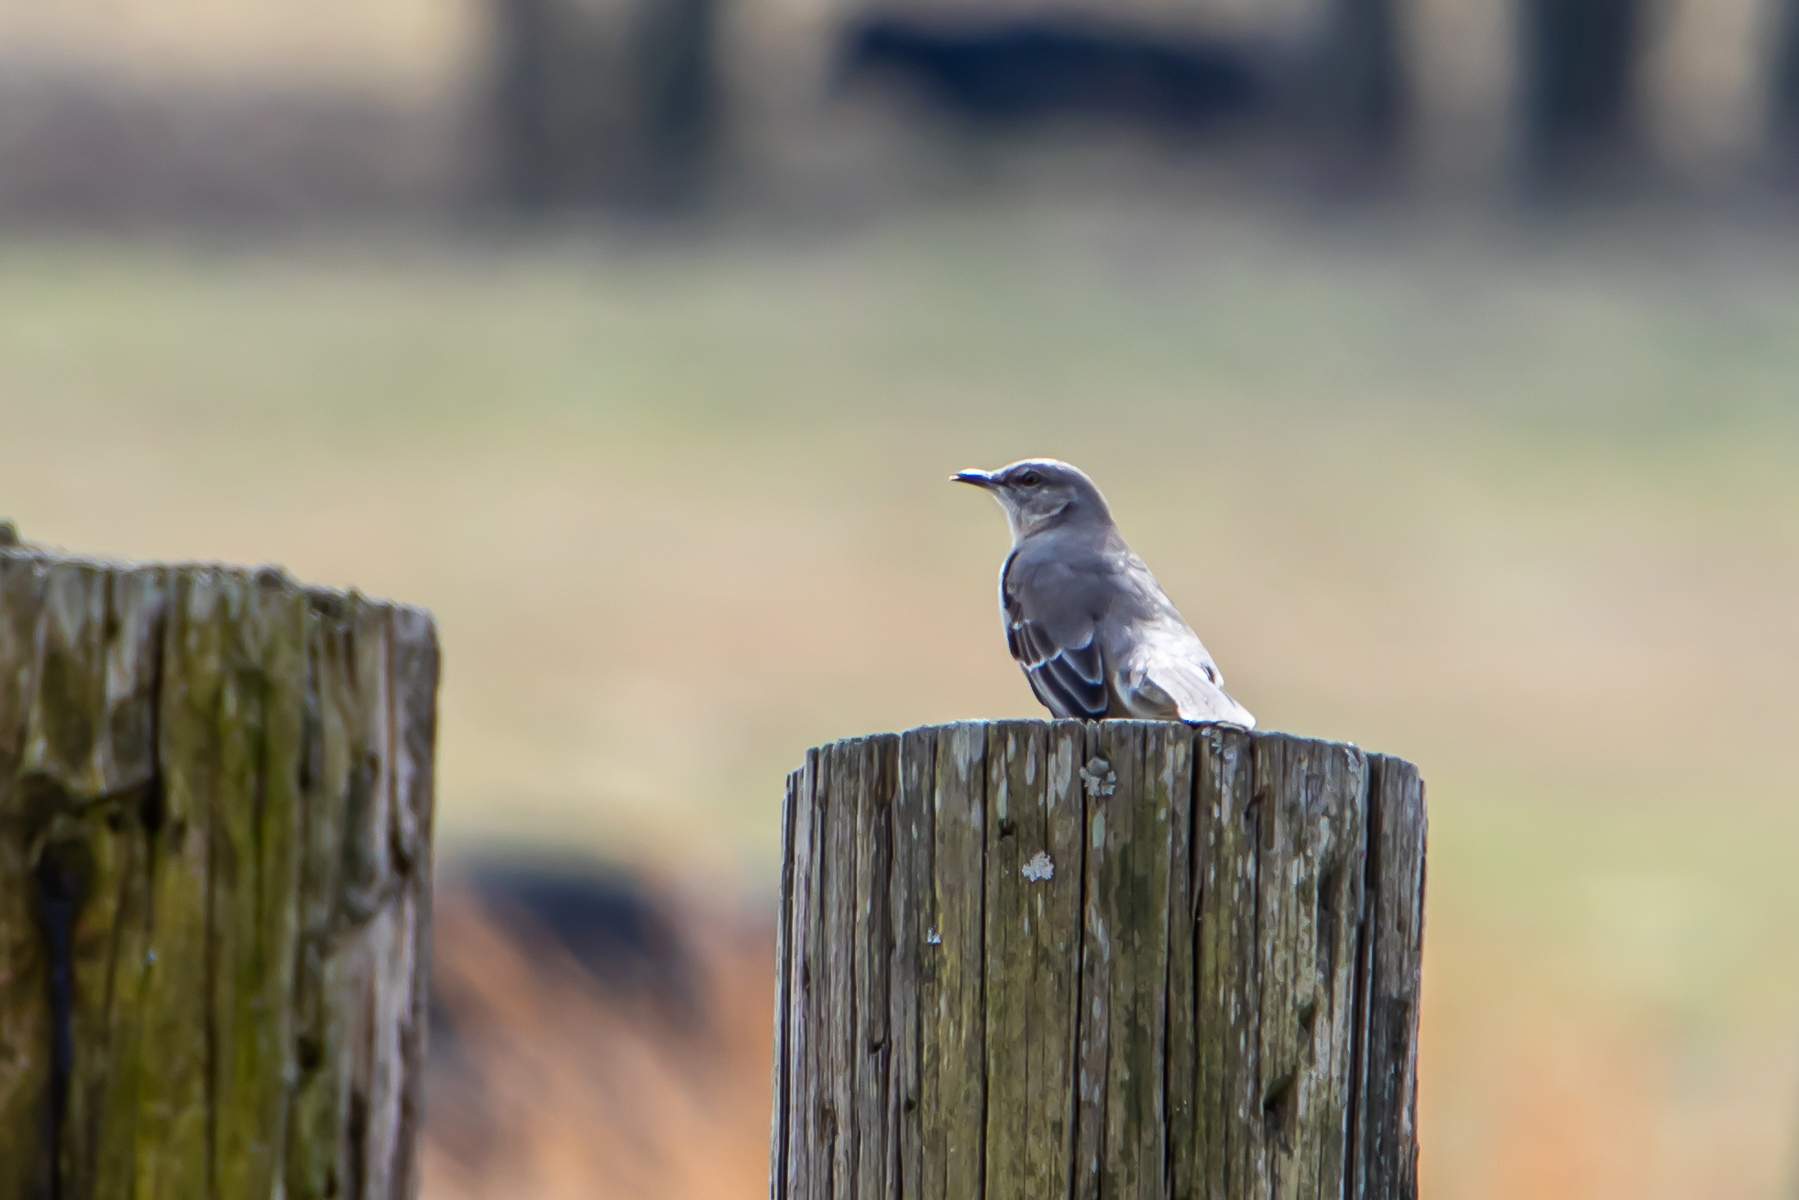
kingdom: Animalia
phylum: Chordata
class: Aves
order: Passeriformes
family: Mimidae
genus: Mimus
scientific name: Mimus polyglottos
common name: Northern mockingbird
